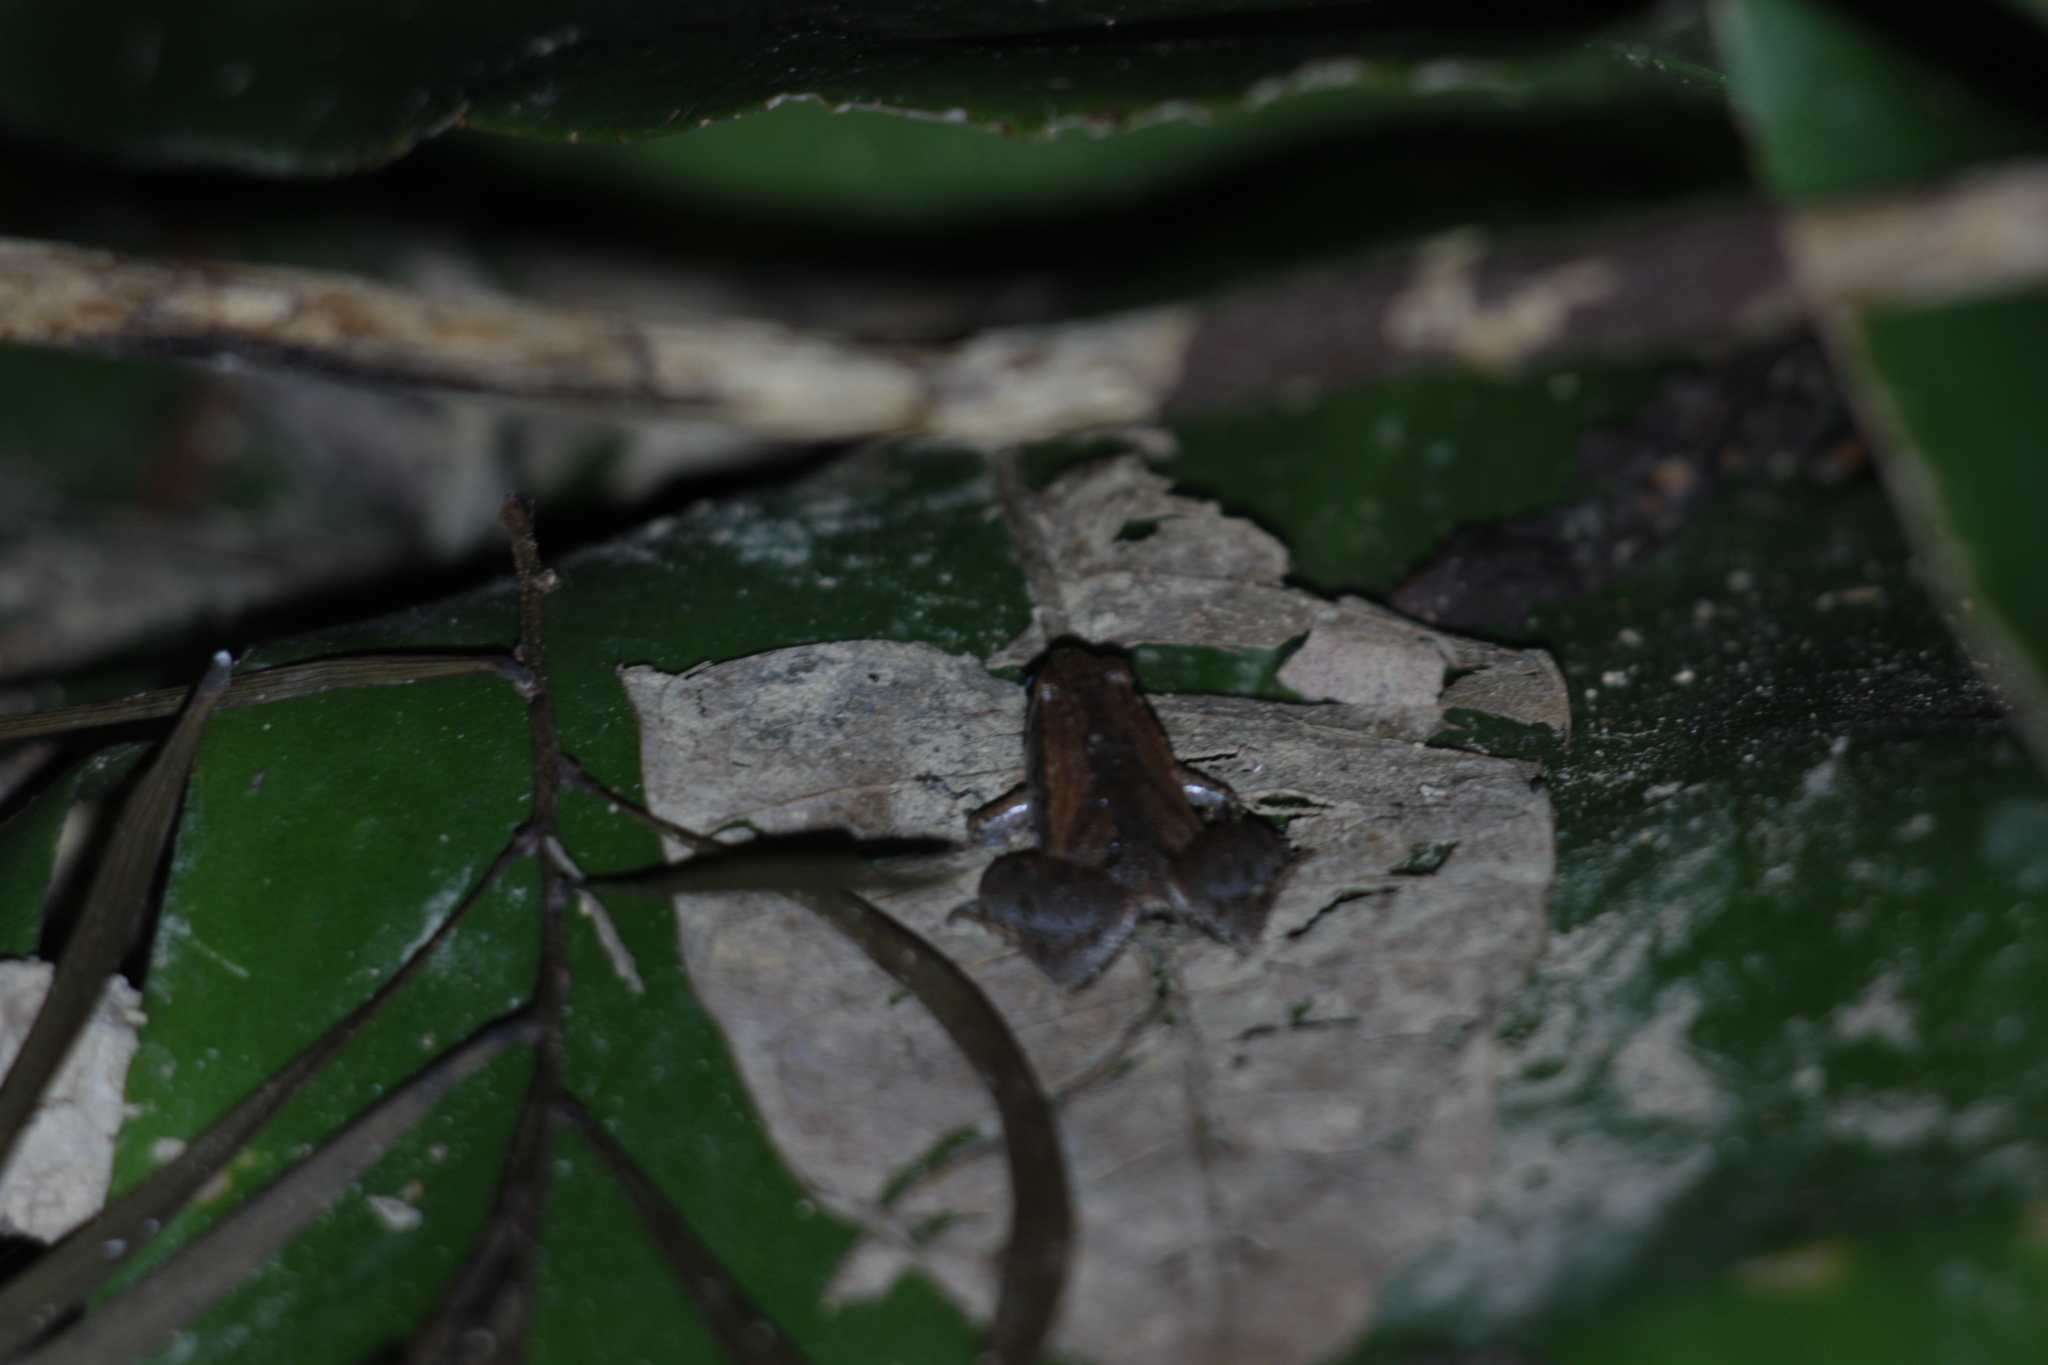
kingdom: Animalia
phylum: Chordata
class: Amphibia
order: Anura
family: Microhylidae
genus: Microhyla
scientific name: Microhyla fissipes
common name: Ornate narrow-mouthed frog
